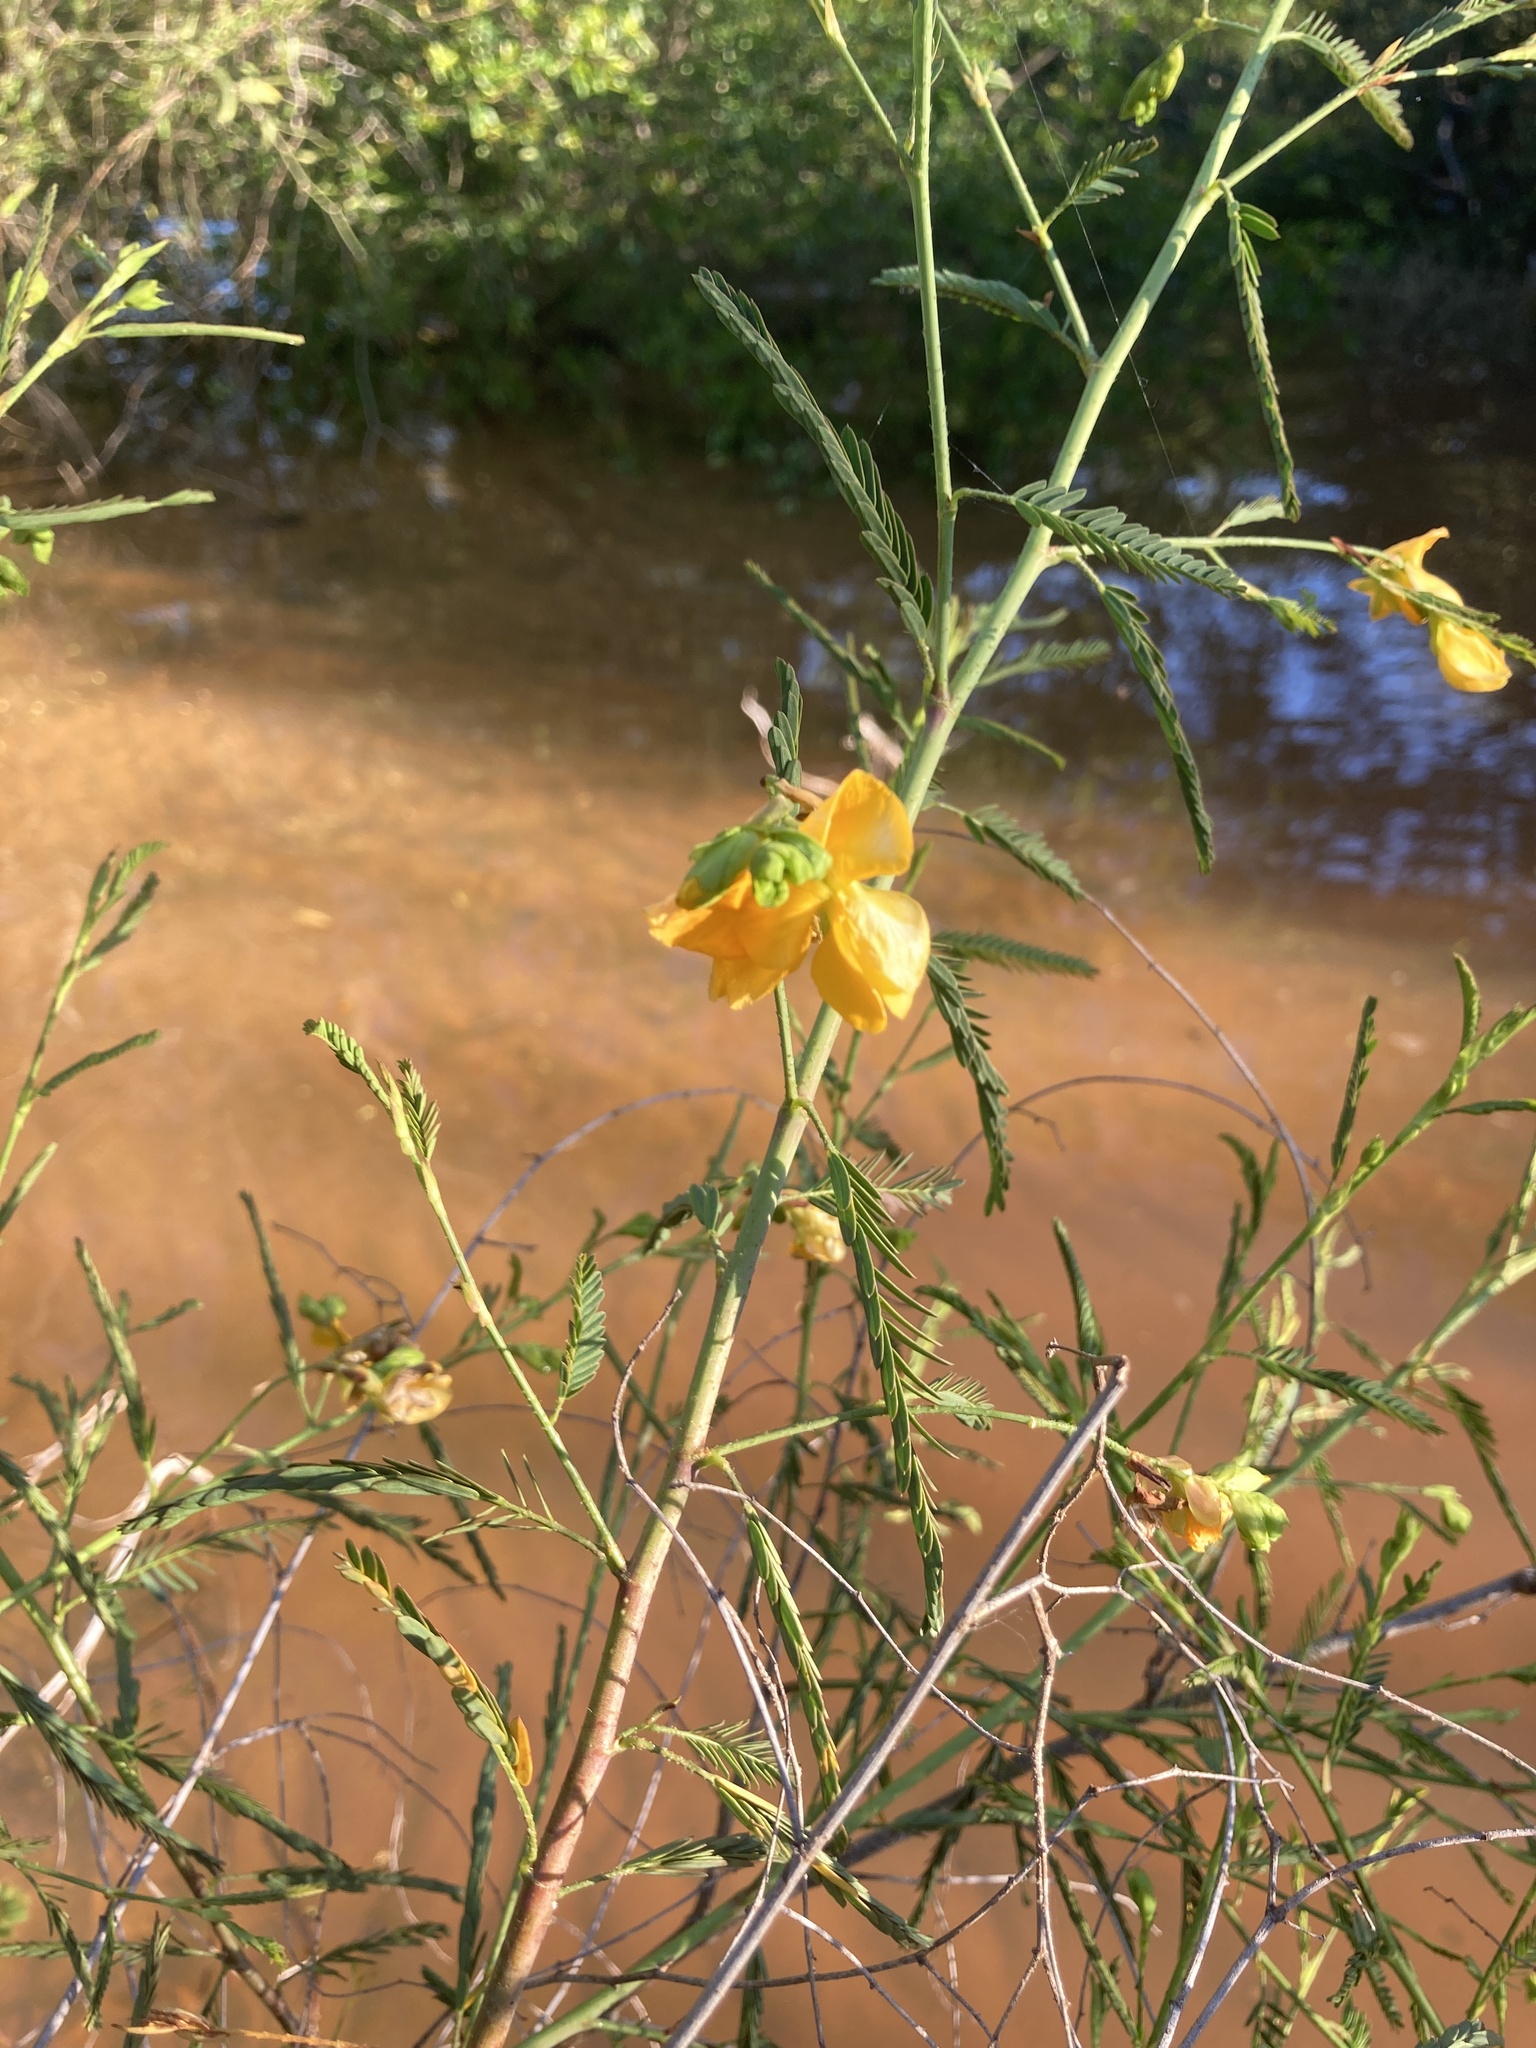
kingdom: Plantae
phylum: Tracheophyta
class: Magnoliopsida
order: Fabales
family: Fabaceae
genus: Aeschynomene
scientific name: Aeschynomene montevidensis
